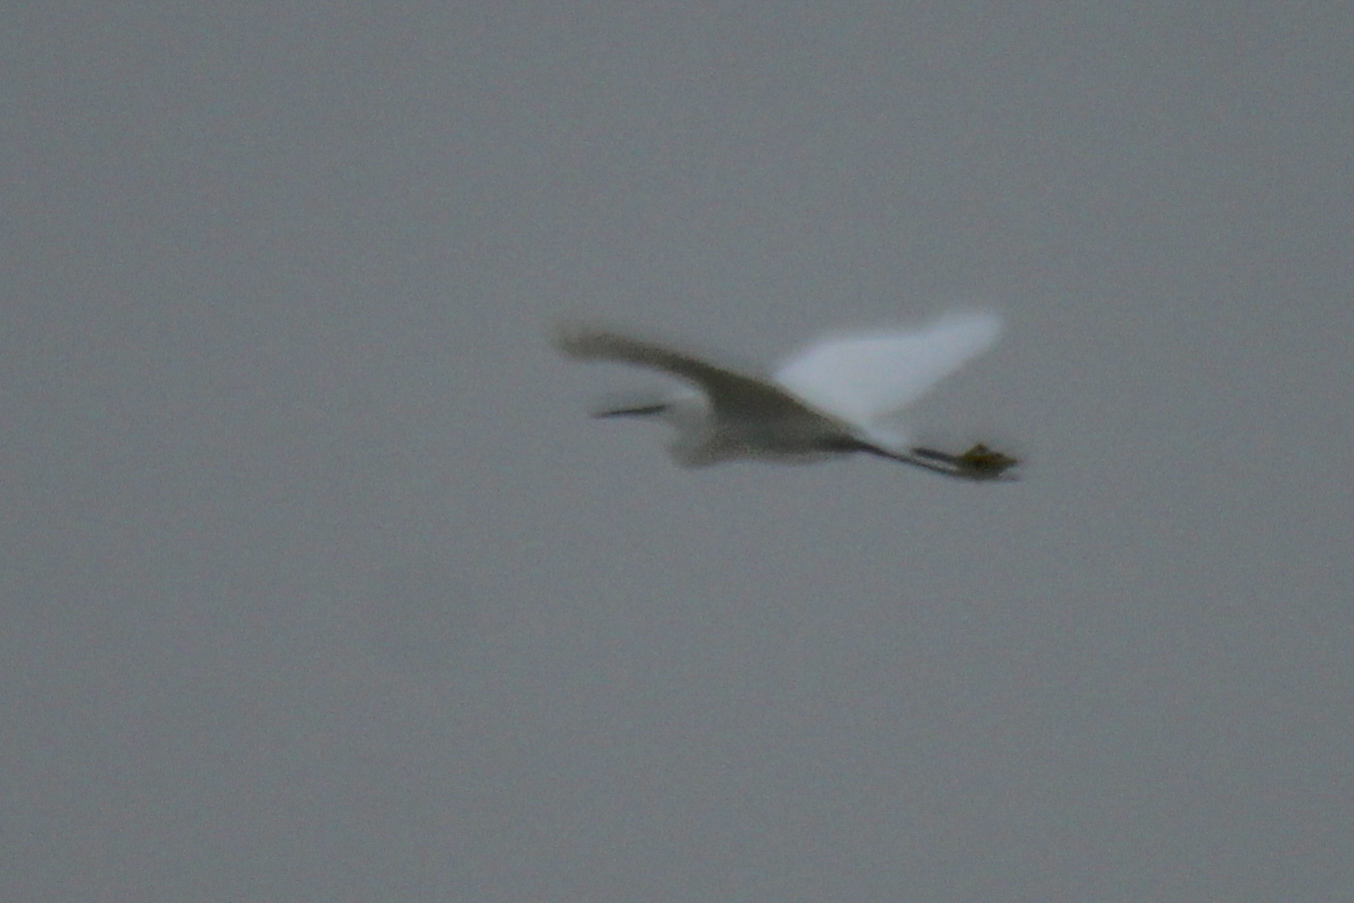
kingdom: Animalia
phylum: Chordata
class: Aves
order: Pelecaniformes
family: Ardeidae
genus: Egretta
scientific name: Egretta garzetta
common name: Little egret
